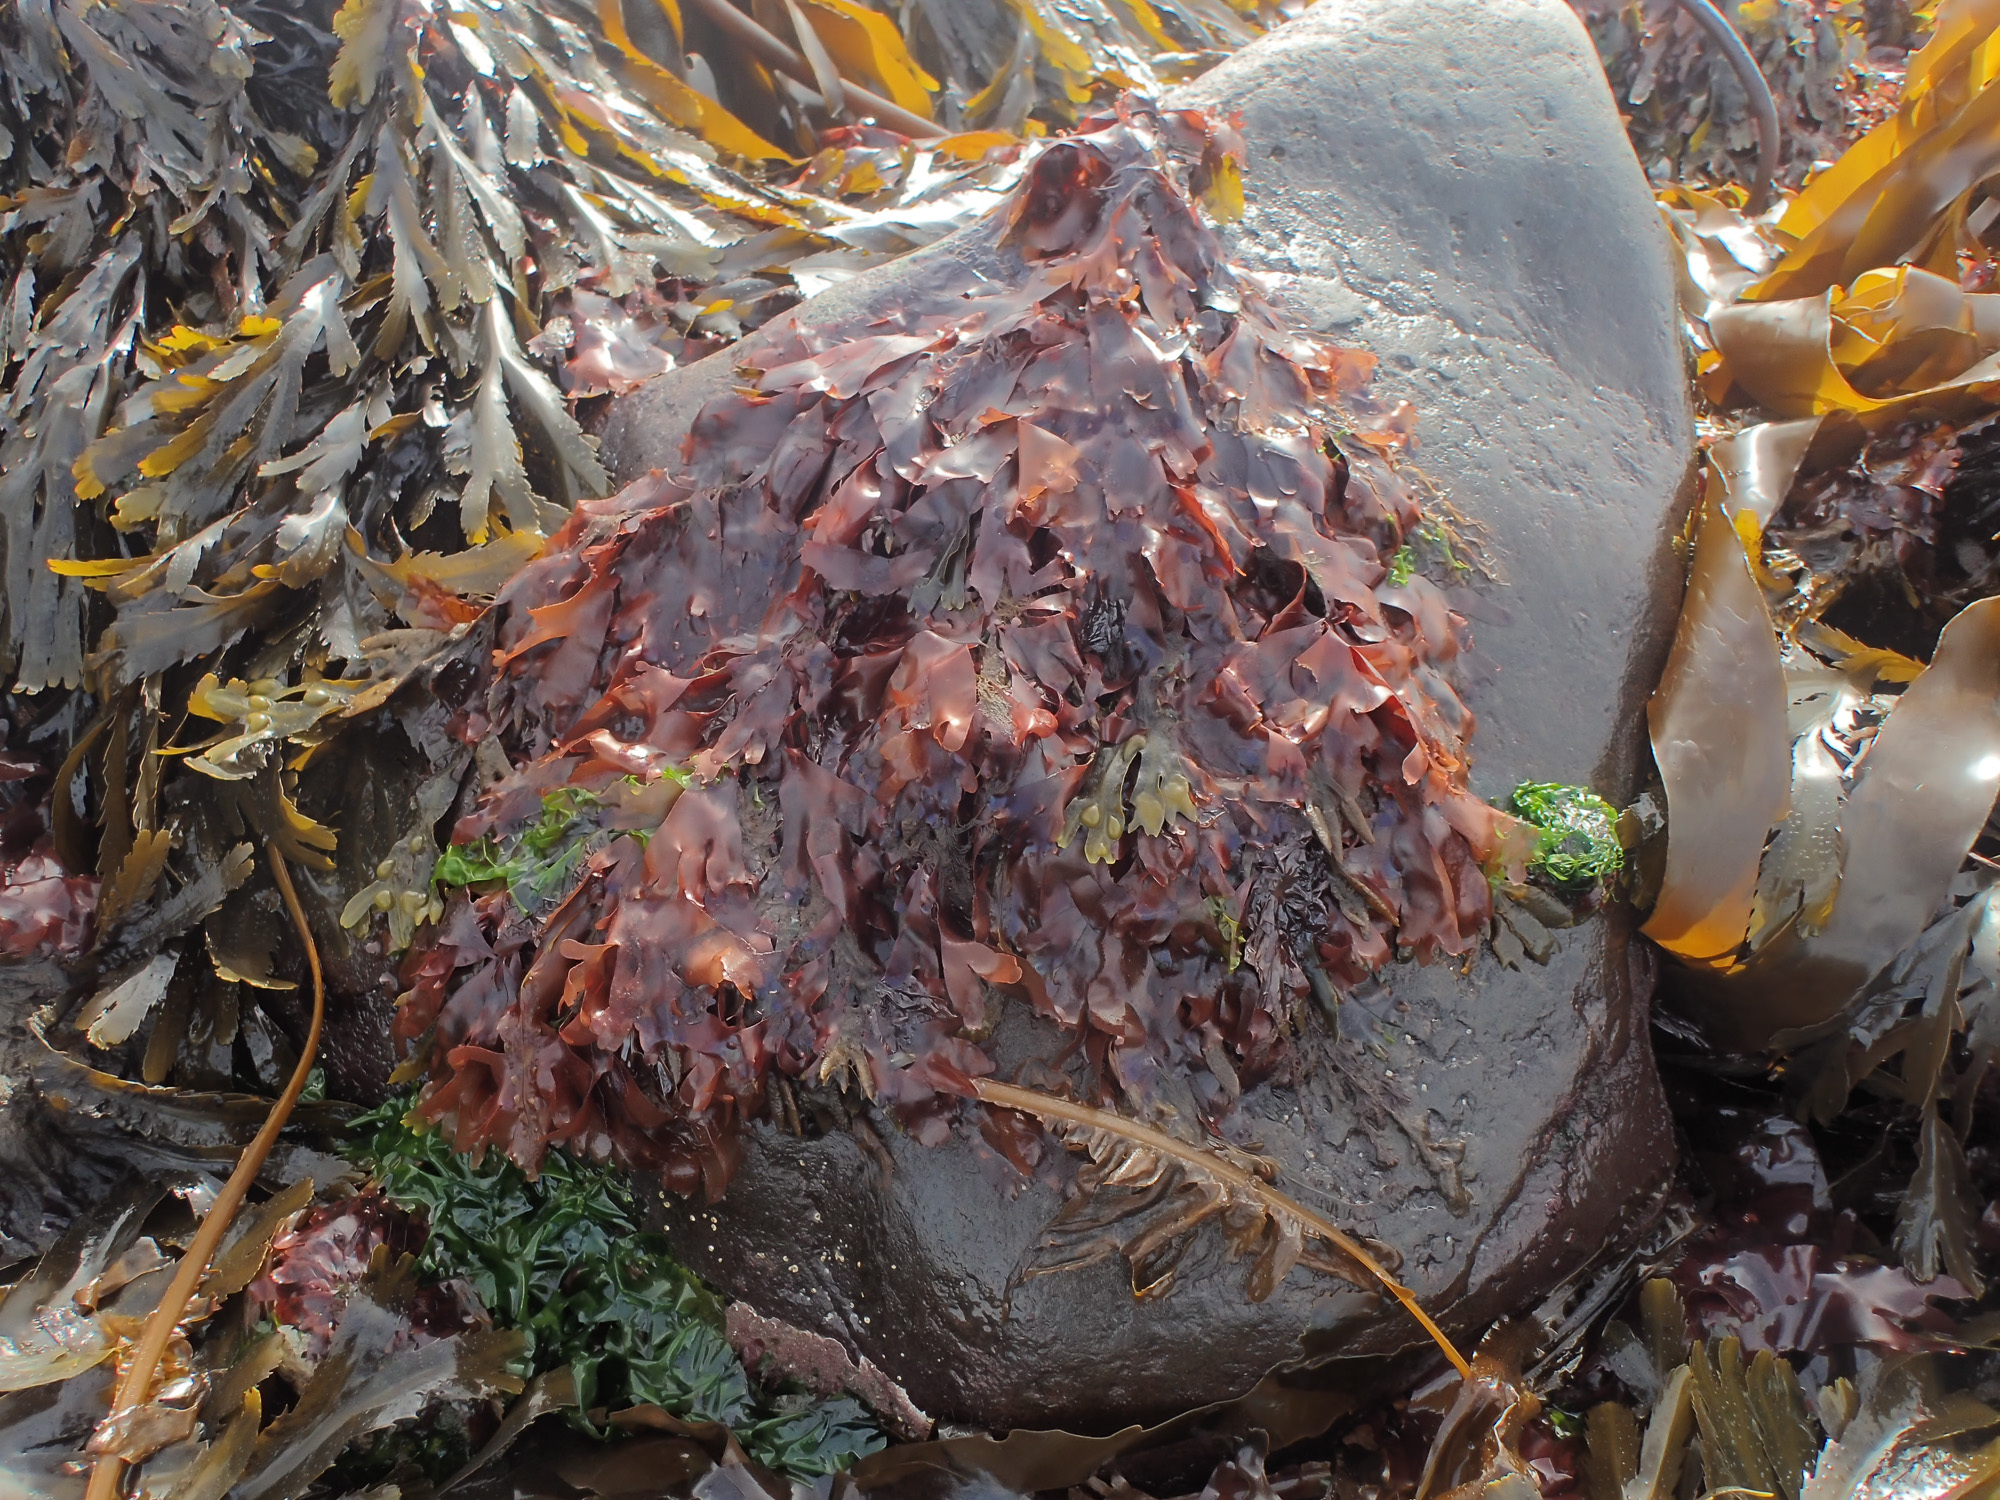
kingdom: Plantae
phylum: Rhodophyta
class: Florideophyceae
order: Palmariales
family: Palmariaceae
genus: Palmaria
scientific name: Palmaria palmata
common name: Dulse
